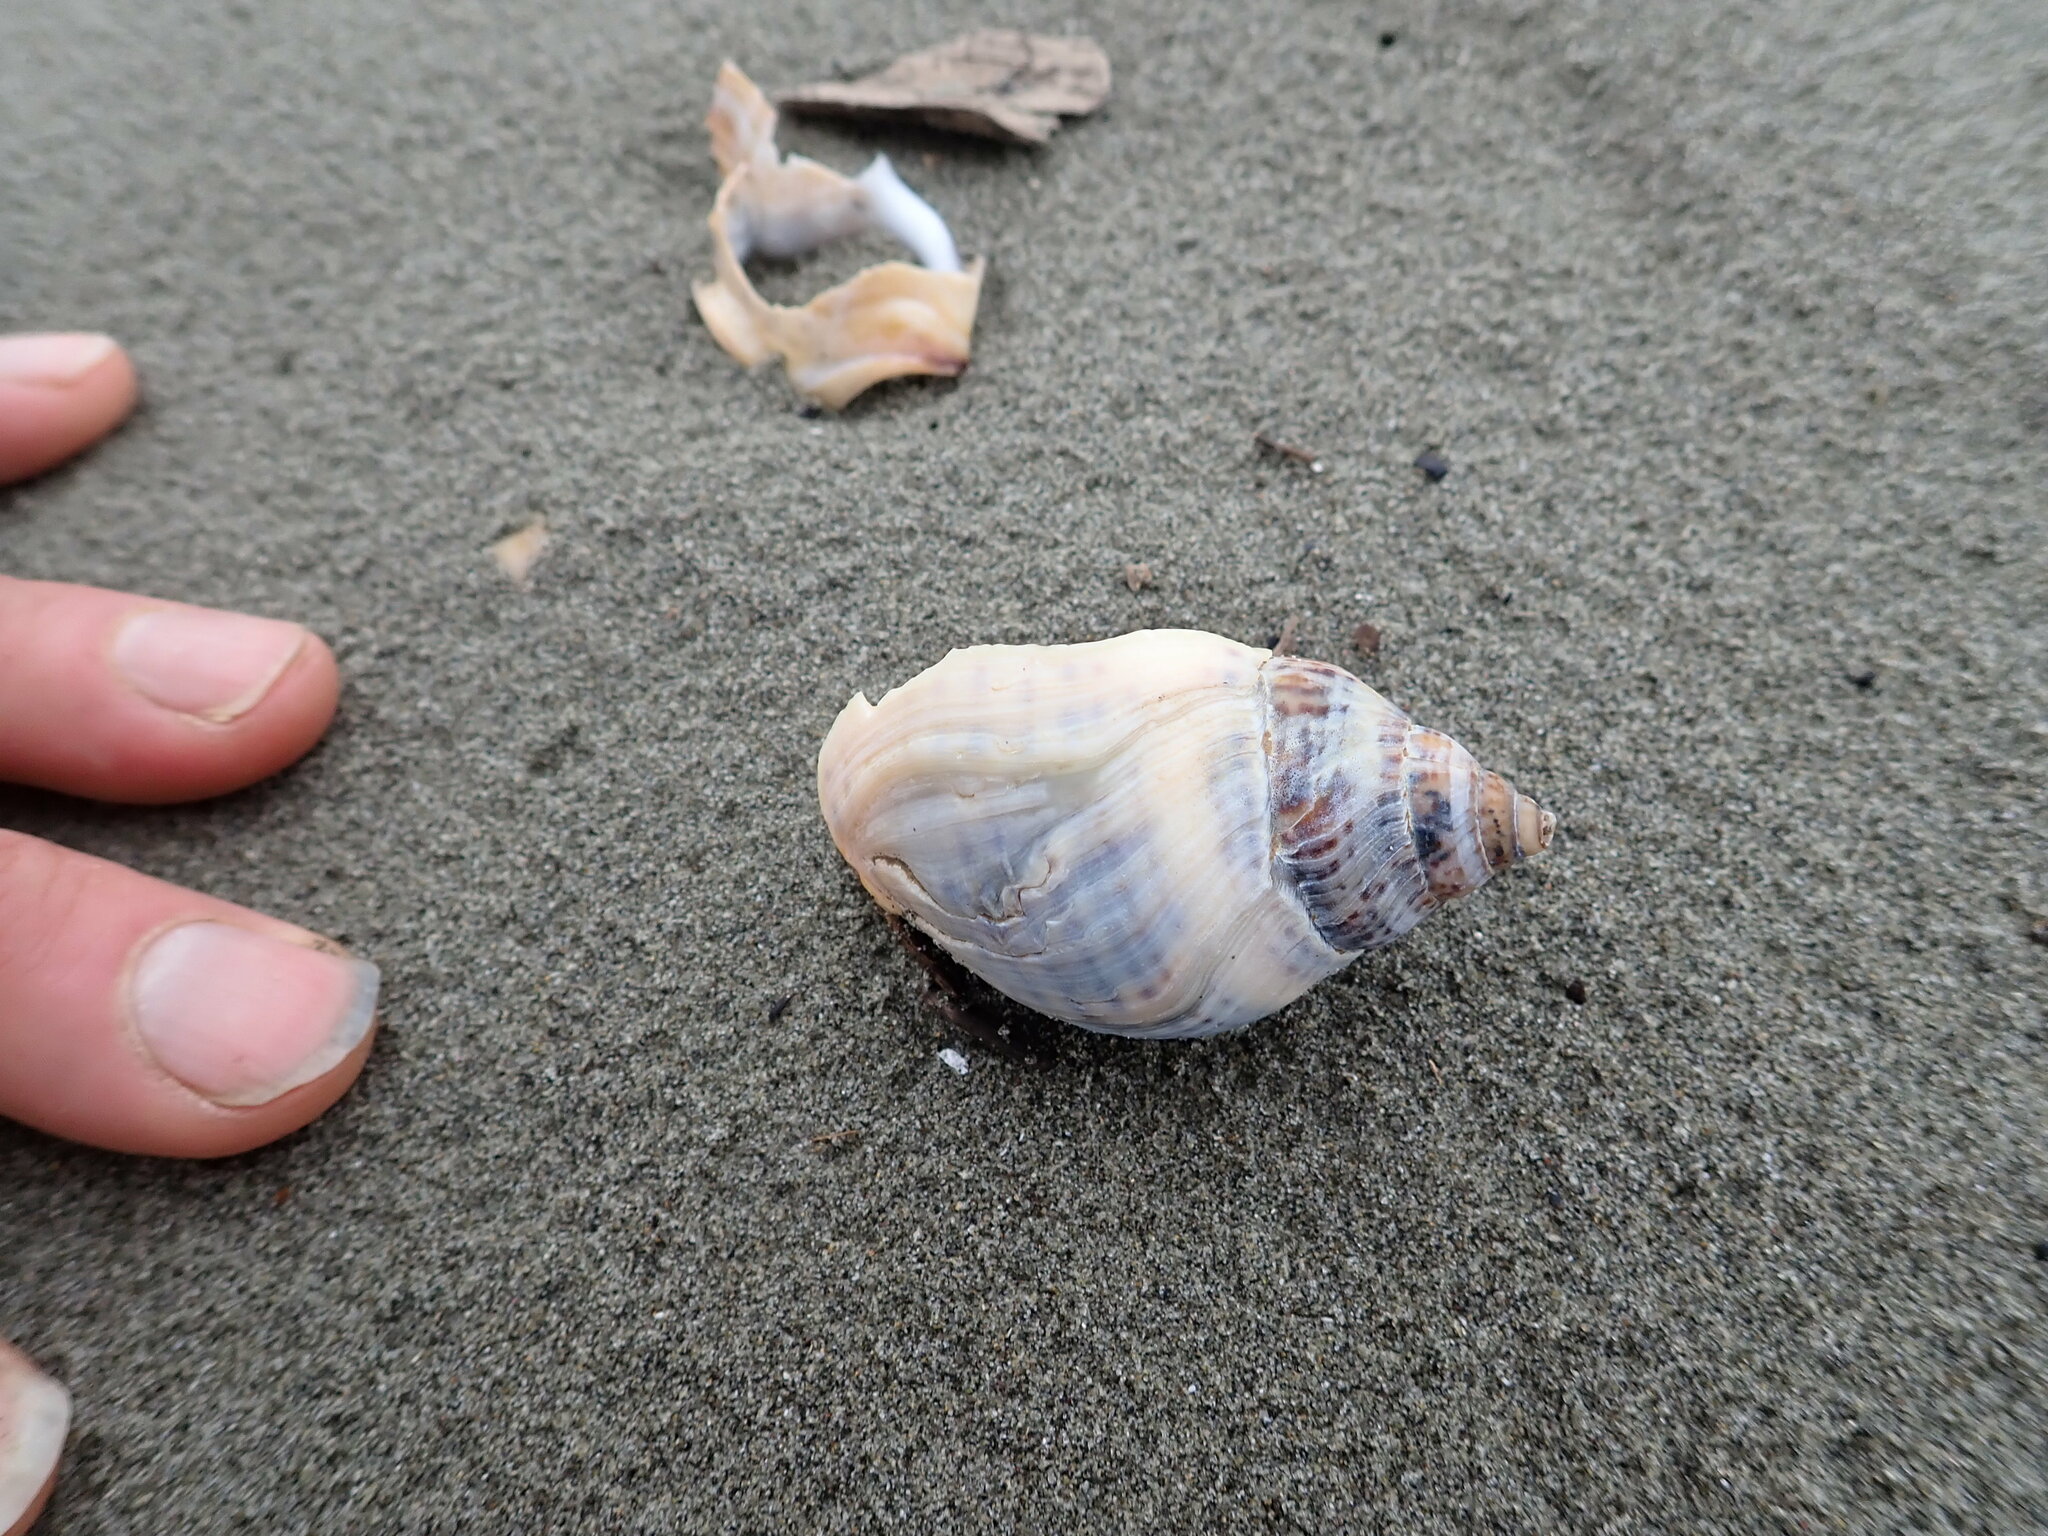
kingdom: Animalia
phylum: Mollusca
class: Gastropoda
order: Neogastropoda
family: Cominellidae
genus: Cominella
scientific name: Cominella adspersa
